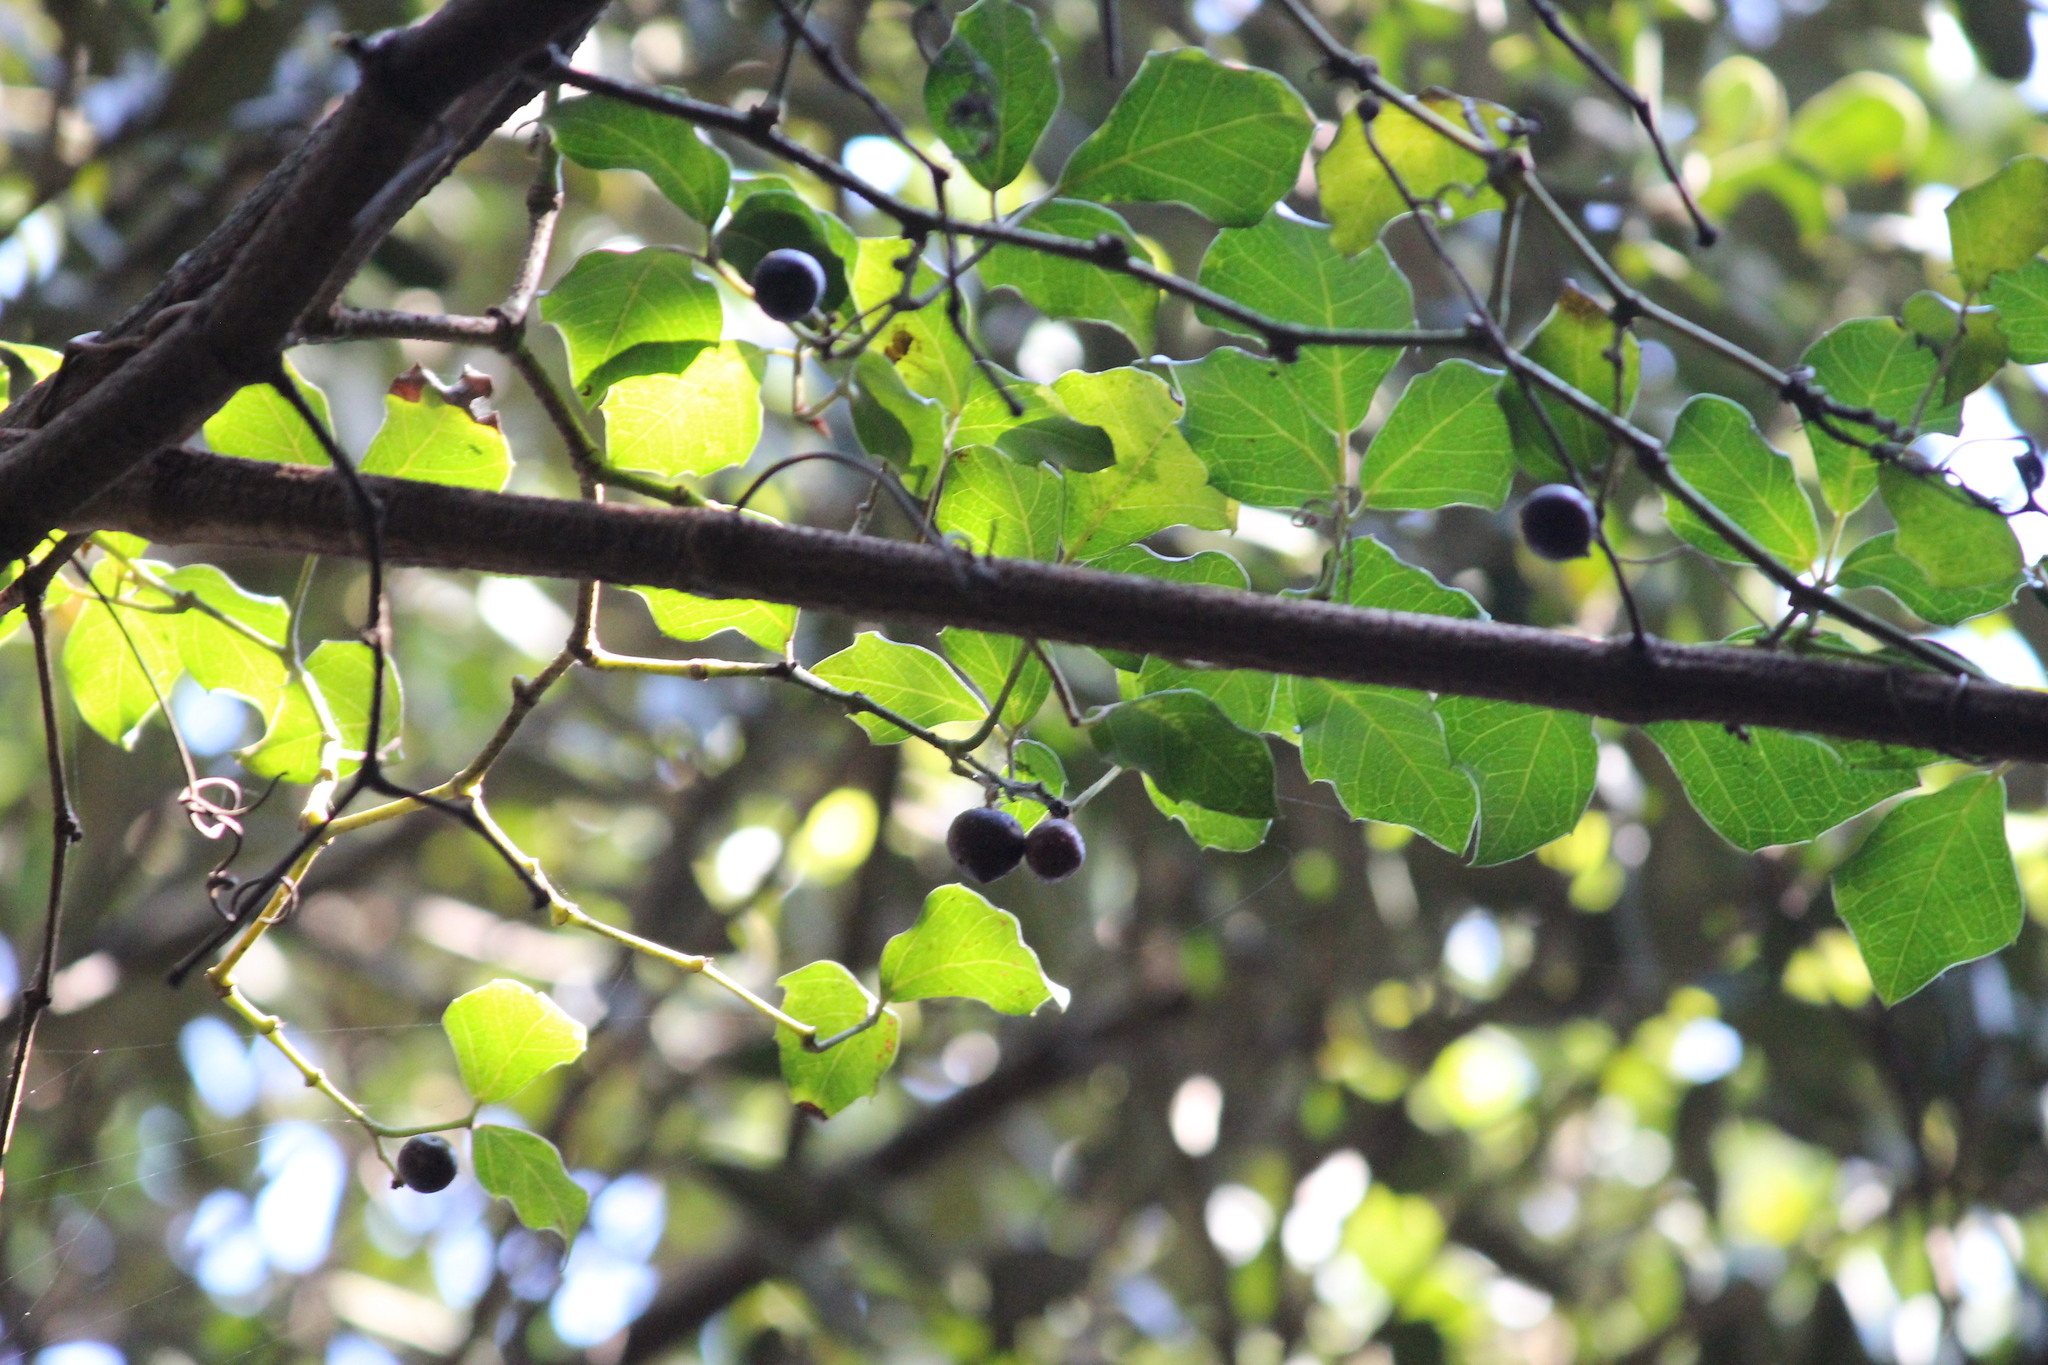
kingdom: Plantae
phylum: Tracheophyta
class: Magnoliopsida
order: Vitales
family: Vitaceae
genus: Rhoicissus
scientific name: Rhoicissus rhomboidea
